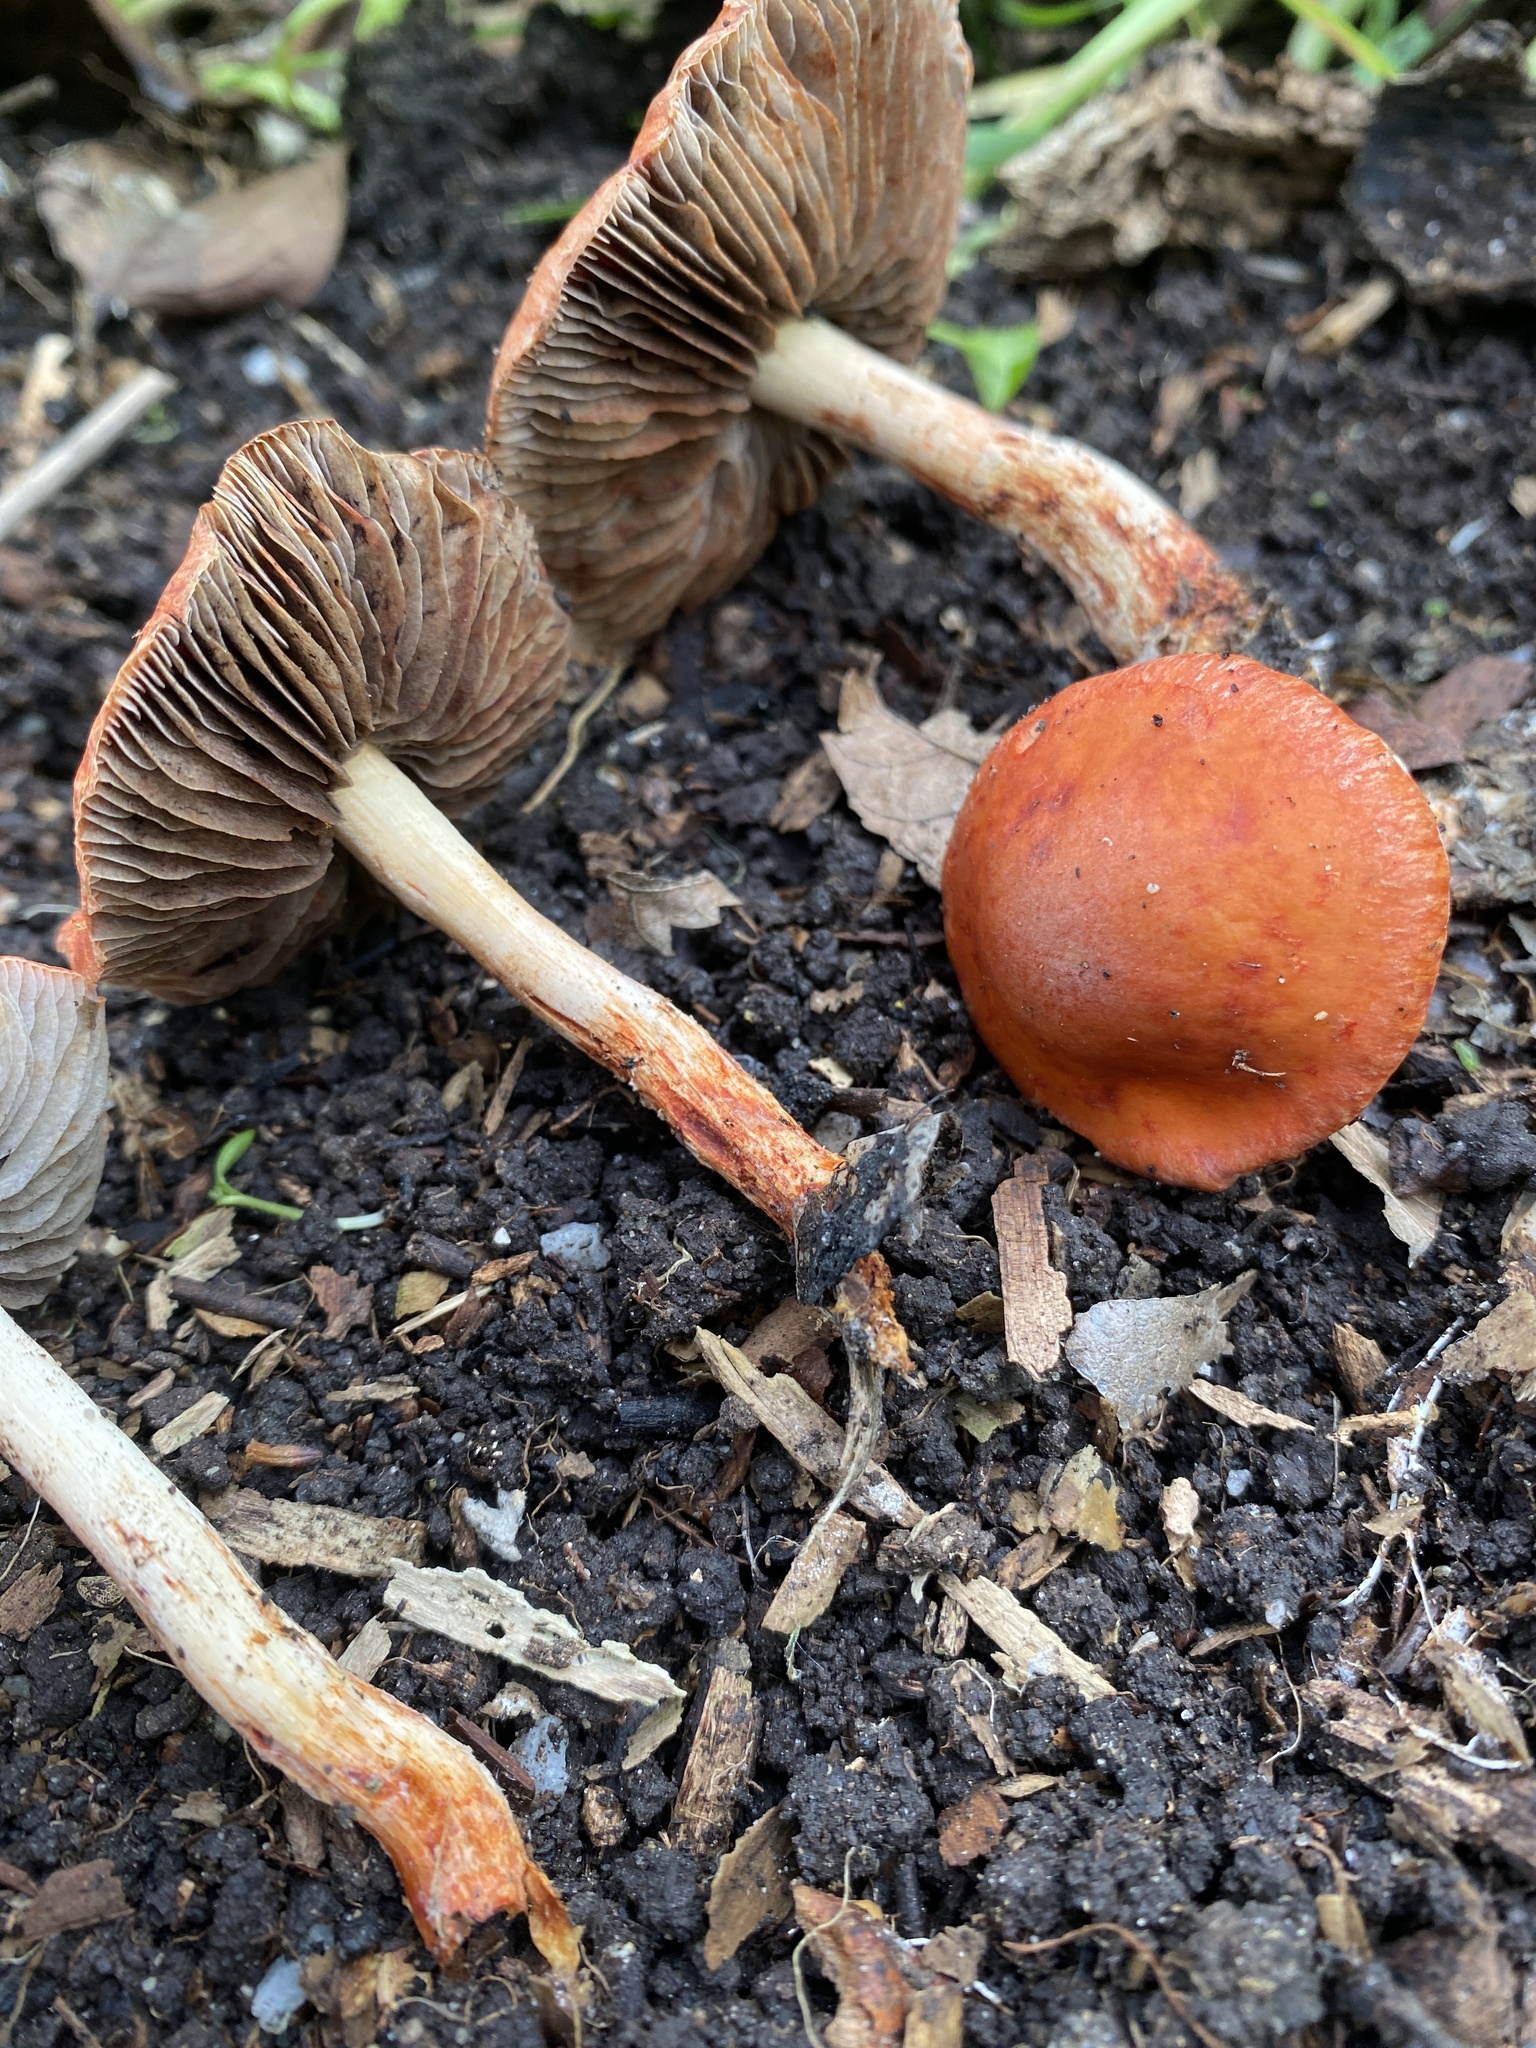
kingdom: Fungi
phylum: Basidiomycota
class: Agaricomycetes
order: Agaricales
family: Strophariaceae
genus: Leratiomyces
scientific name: Leratiomyces ceres
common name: Redlead roundhead
